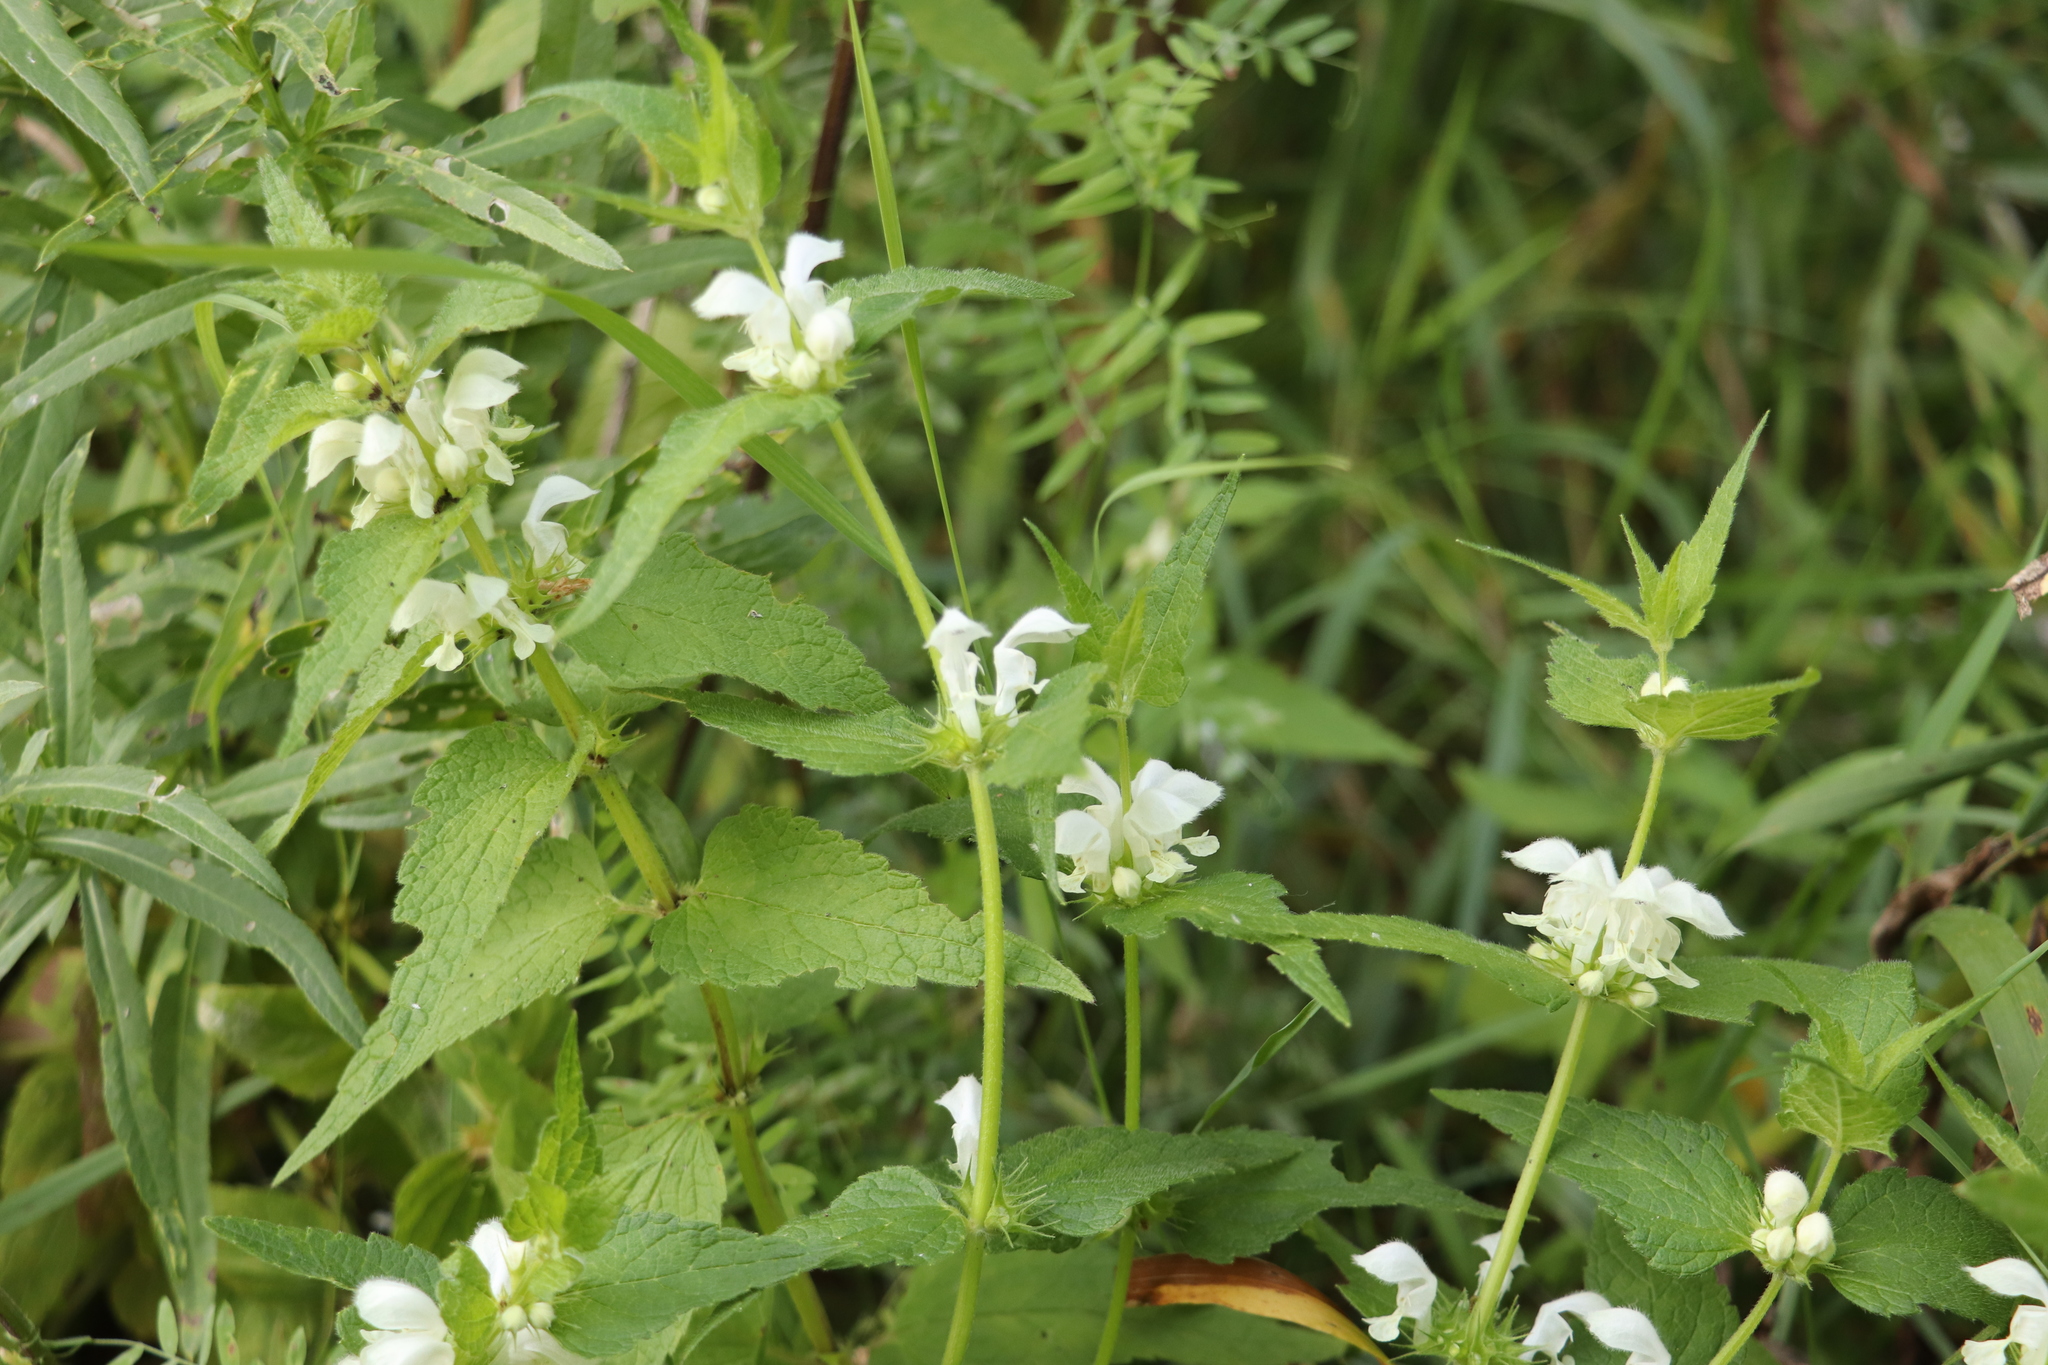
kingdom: Plantae
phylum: Tracheophyta
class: Magnoliopsida
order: Lamiales
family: Lamiaceae
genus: Lamium
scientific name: Lamium album
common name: White dead-nettle
